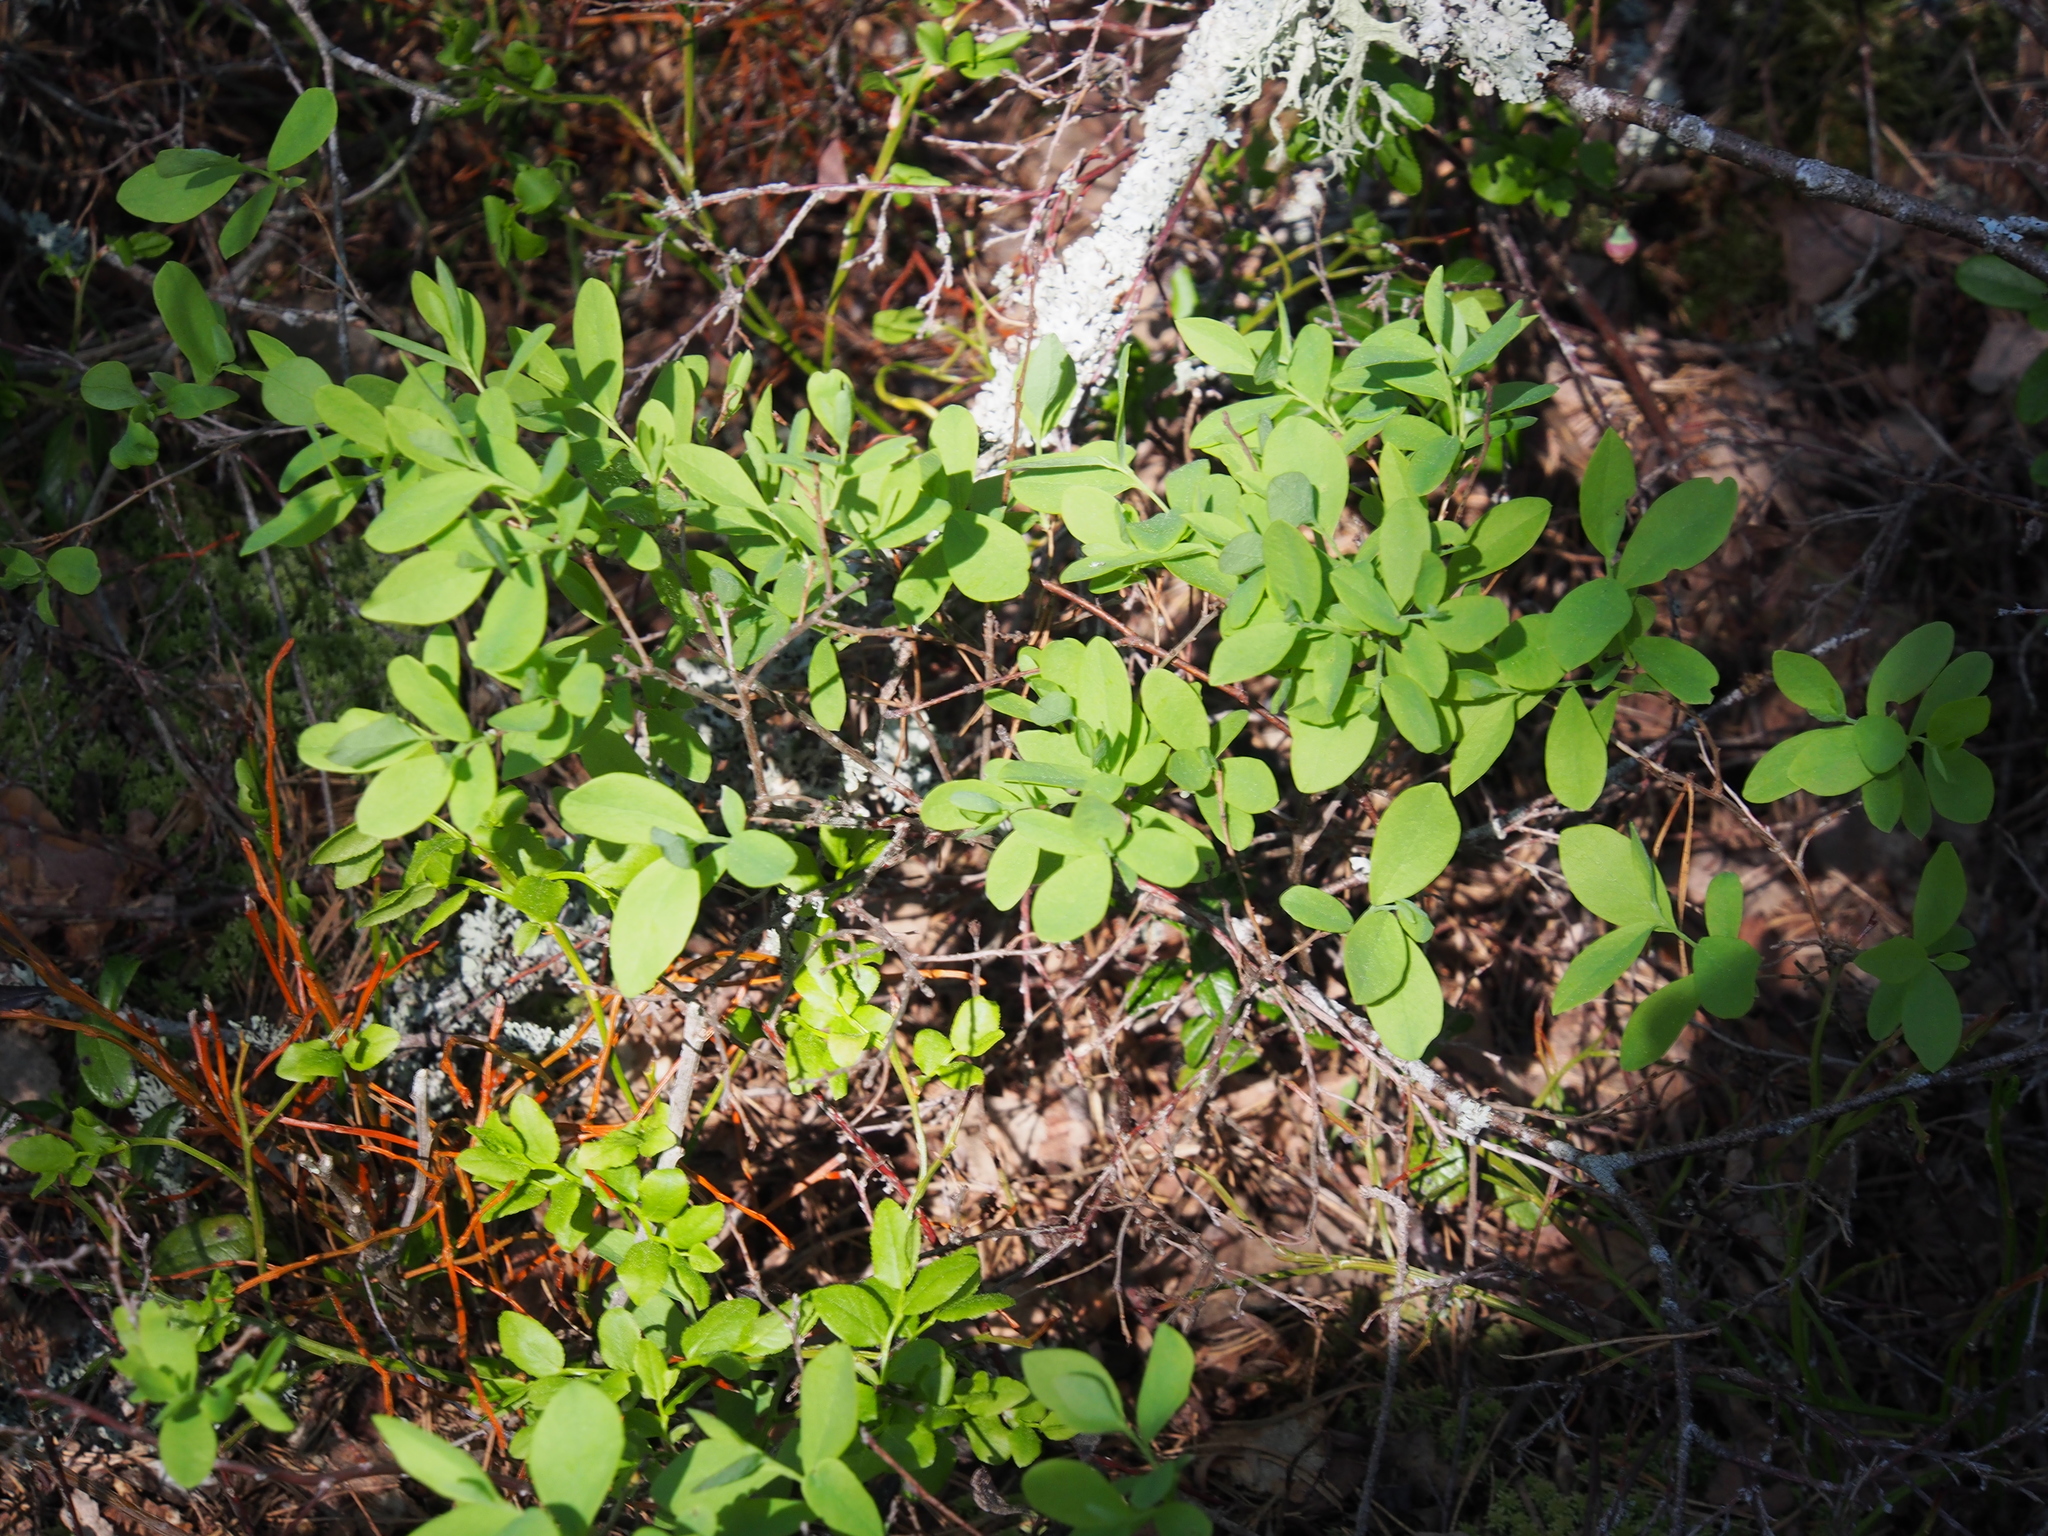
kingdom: Plantae
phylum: Tracheophyta
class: Magnoliopsida
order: Ericales
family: Ericaceae
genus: Vaccinium
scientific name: Vaccinium uliginosum
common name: Bog bilberry
